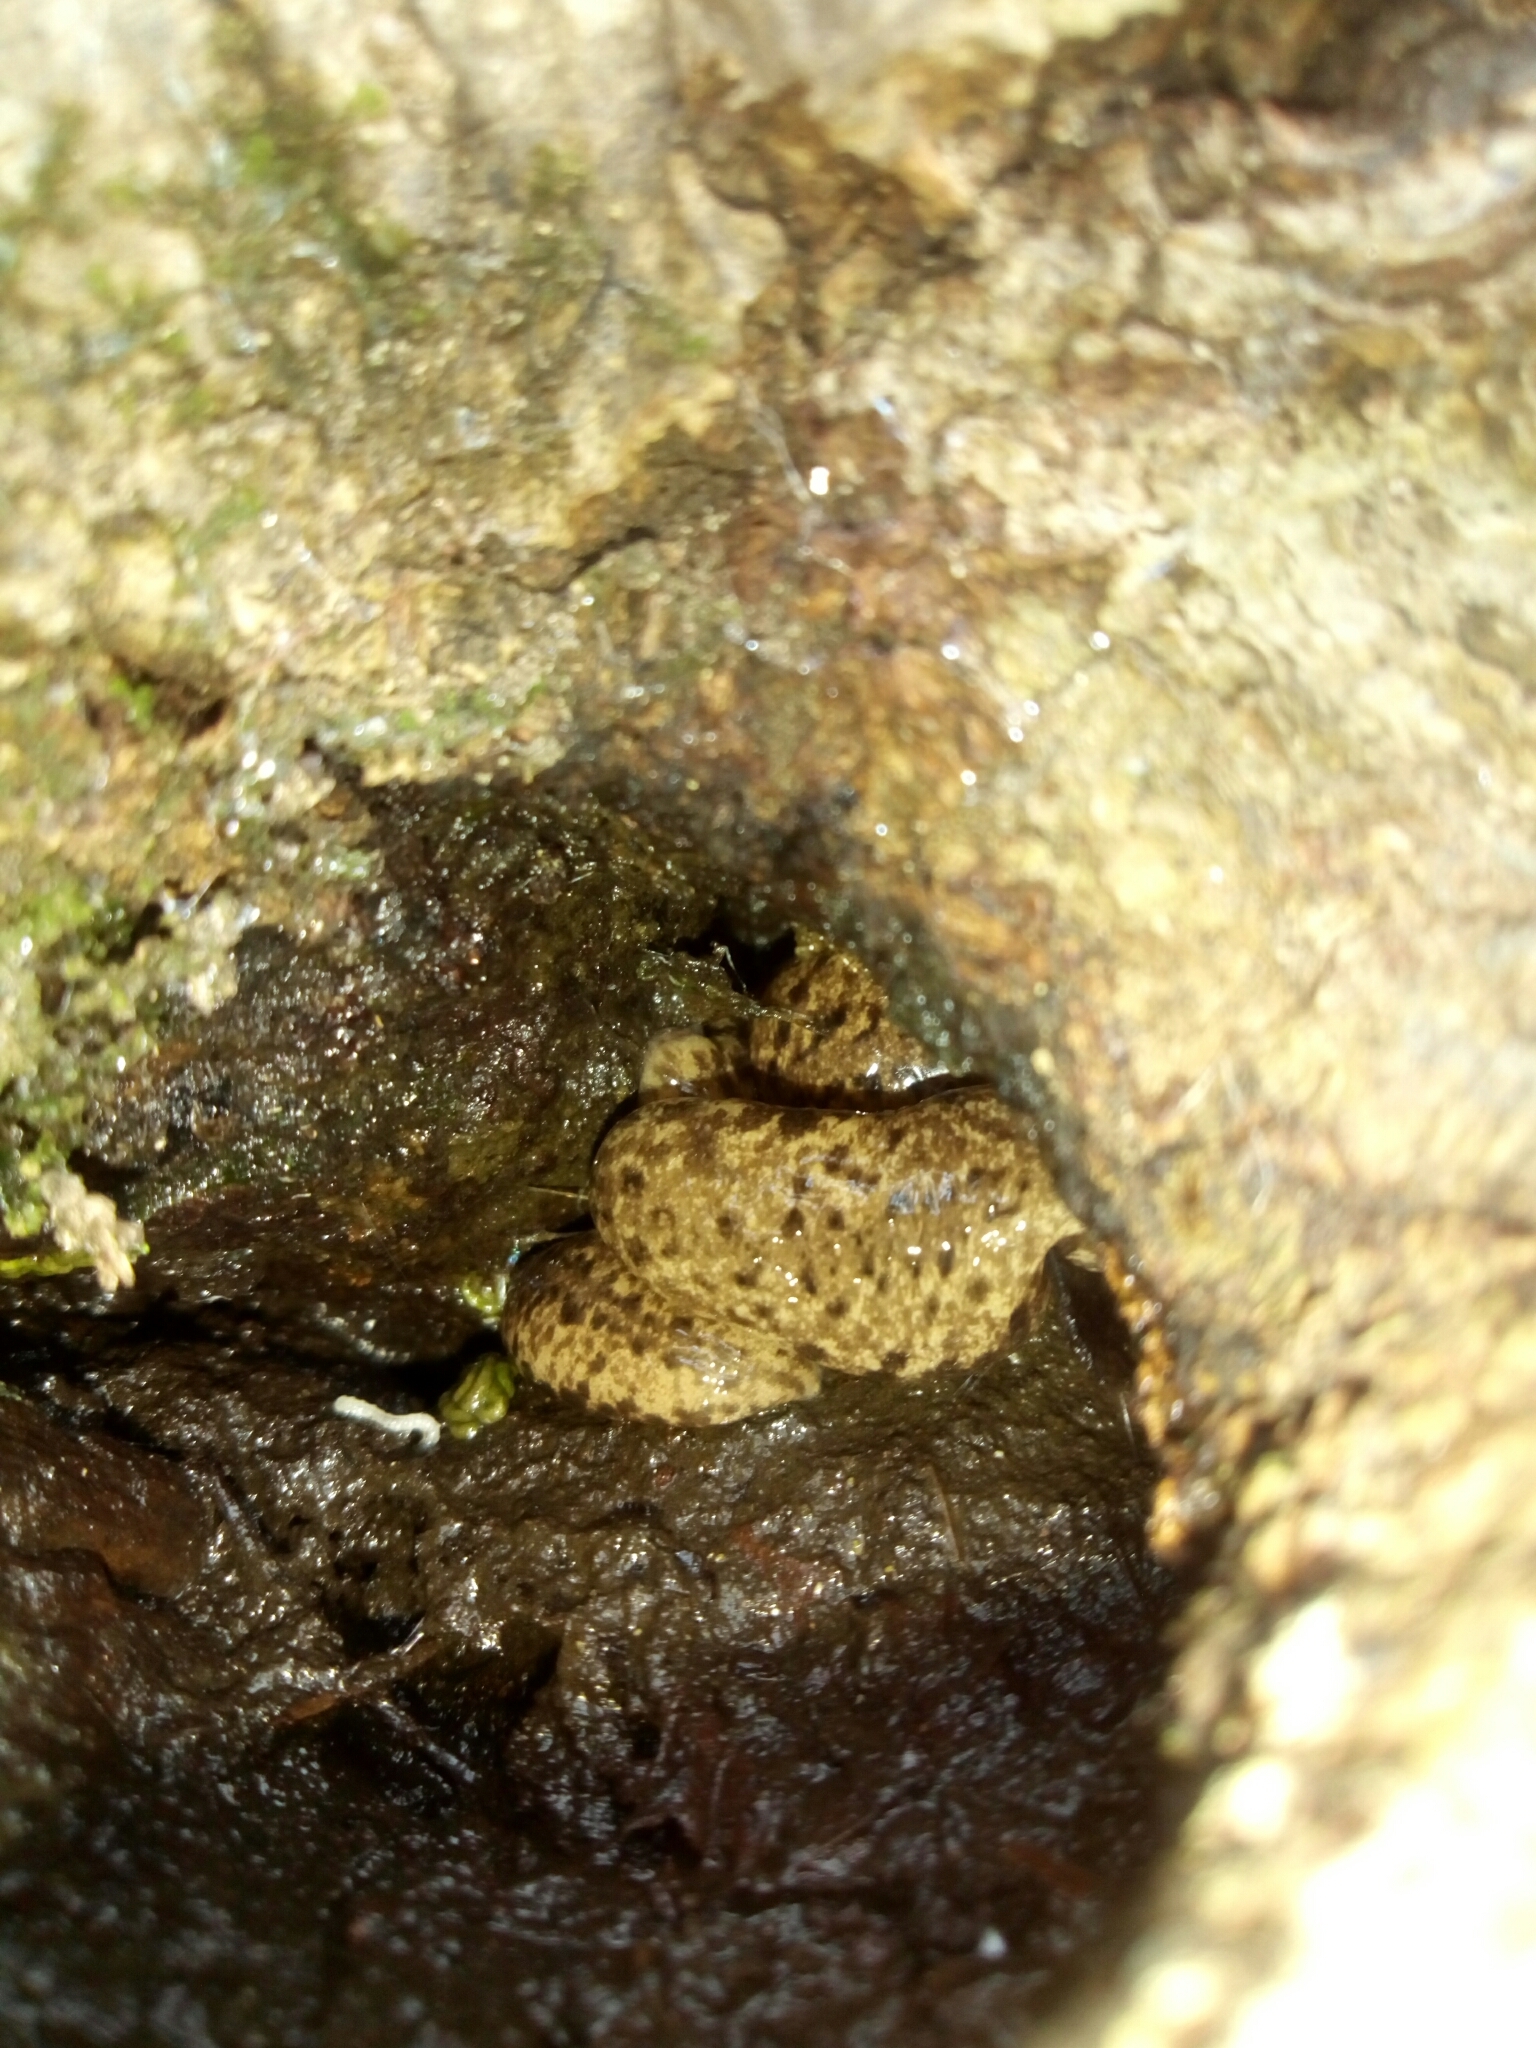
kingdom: Animalia
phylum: Mollusca
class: Gastropoda
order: Stylommatophora
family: Philomycidae
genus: Megapallifera
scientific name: Megapallifera mutabilis
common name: Changeable mantleslug
